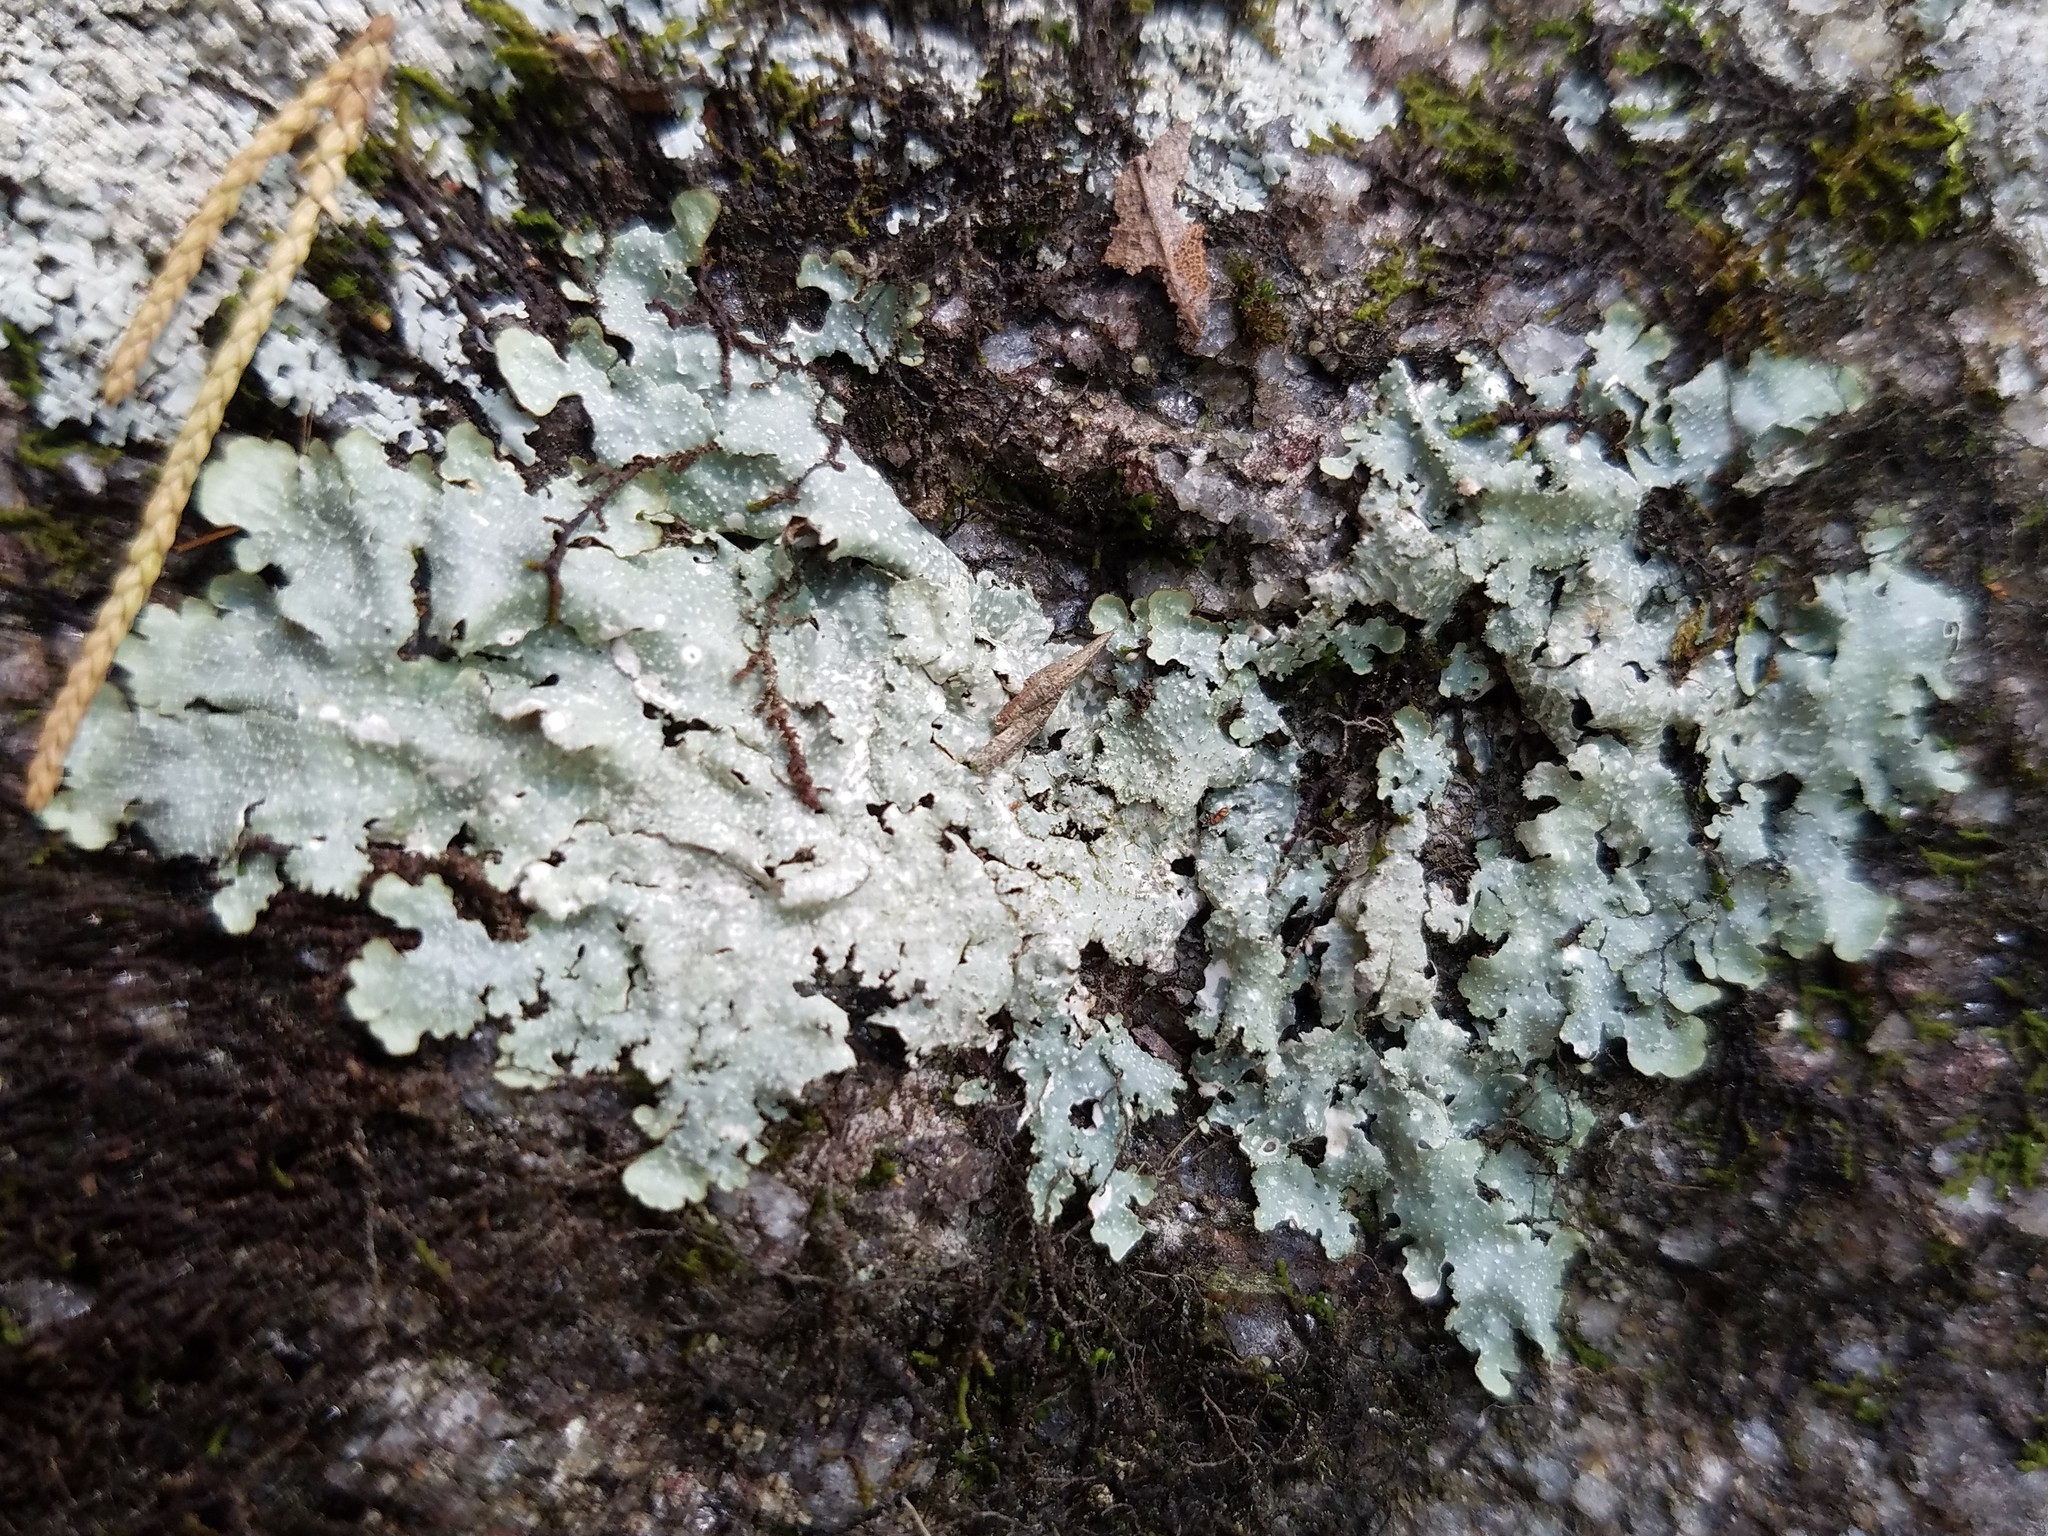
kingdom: Fungi
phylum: Ascomycota
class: Lecanoromycetes
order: Lecanorales
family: Parmeliaceae
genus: Punctelia
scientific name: Punctelia rudecta
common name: Rough speckled shield lichen
